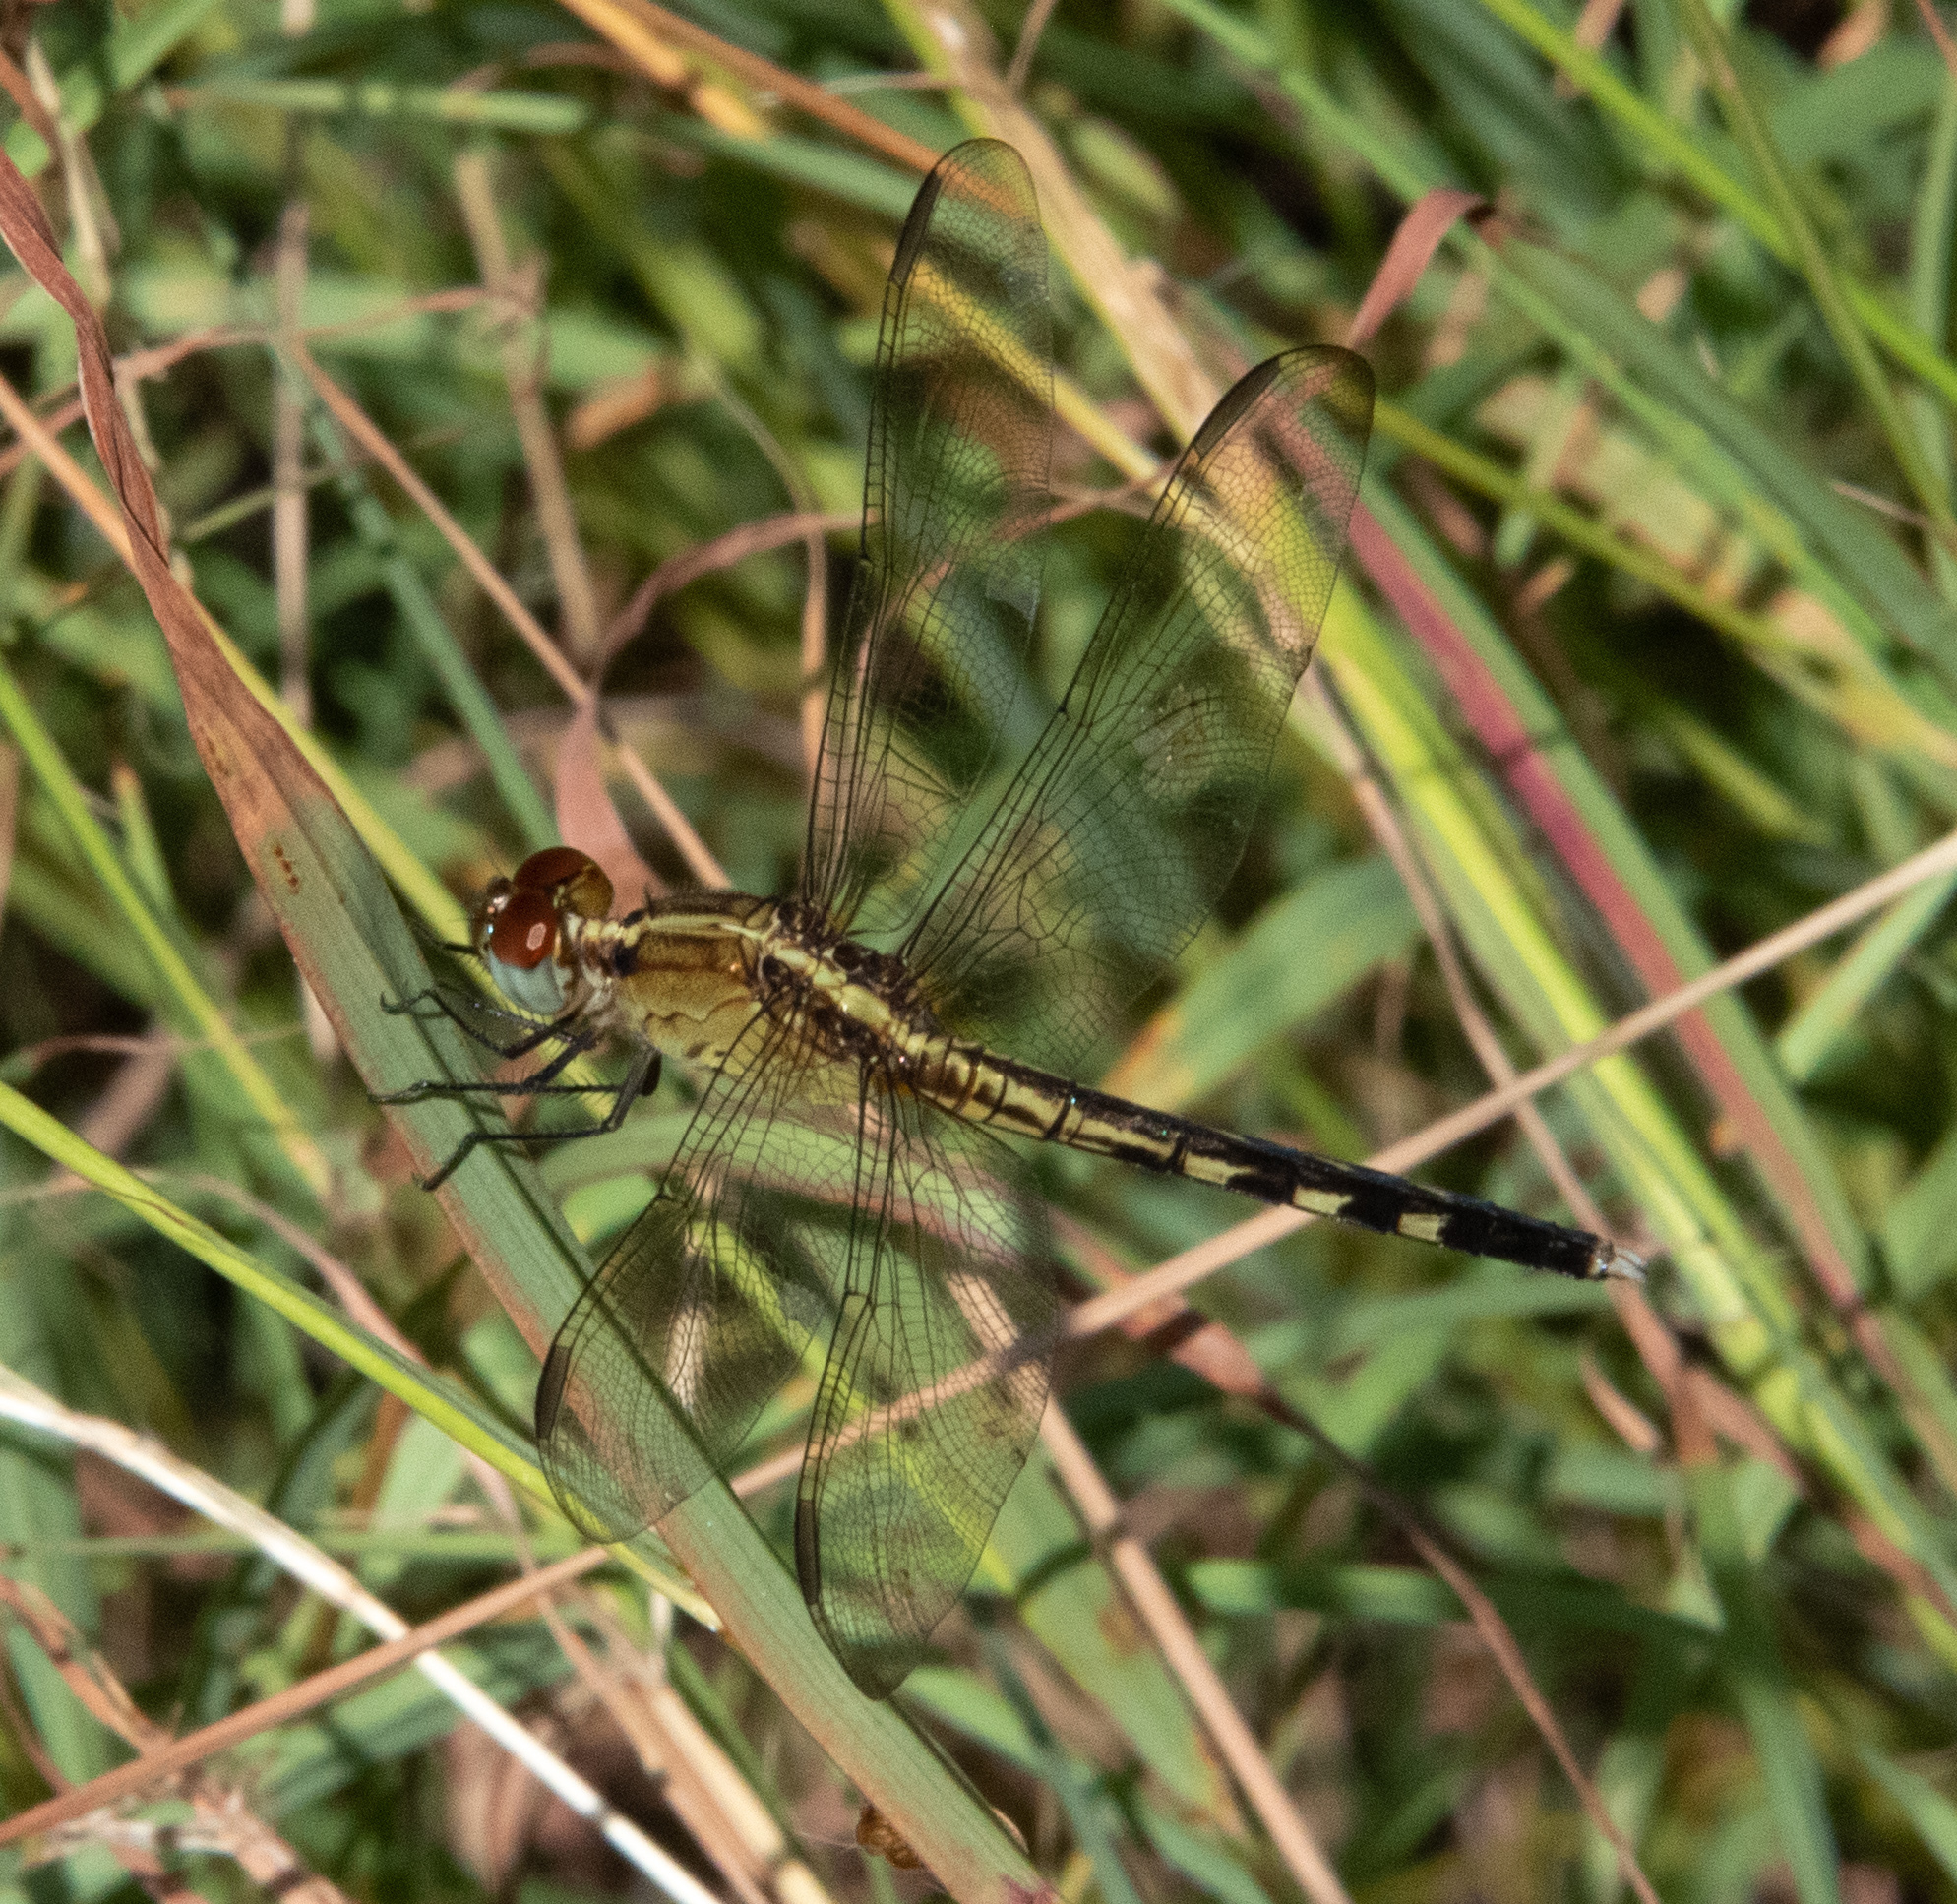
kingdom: Animalia
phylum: Arthropoda
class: Insecta
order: Odonata
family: Libellulidae
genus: Erythrodiplax
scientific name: Erythrodiplax umbrata
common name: Band-winged dragonlet
